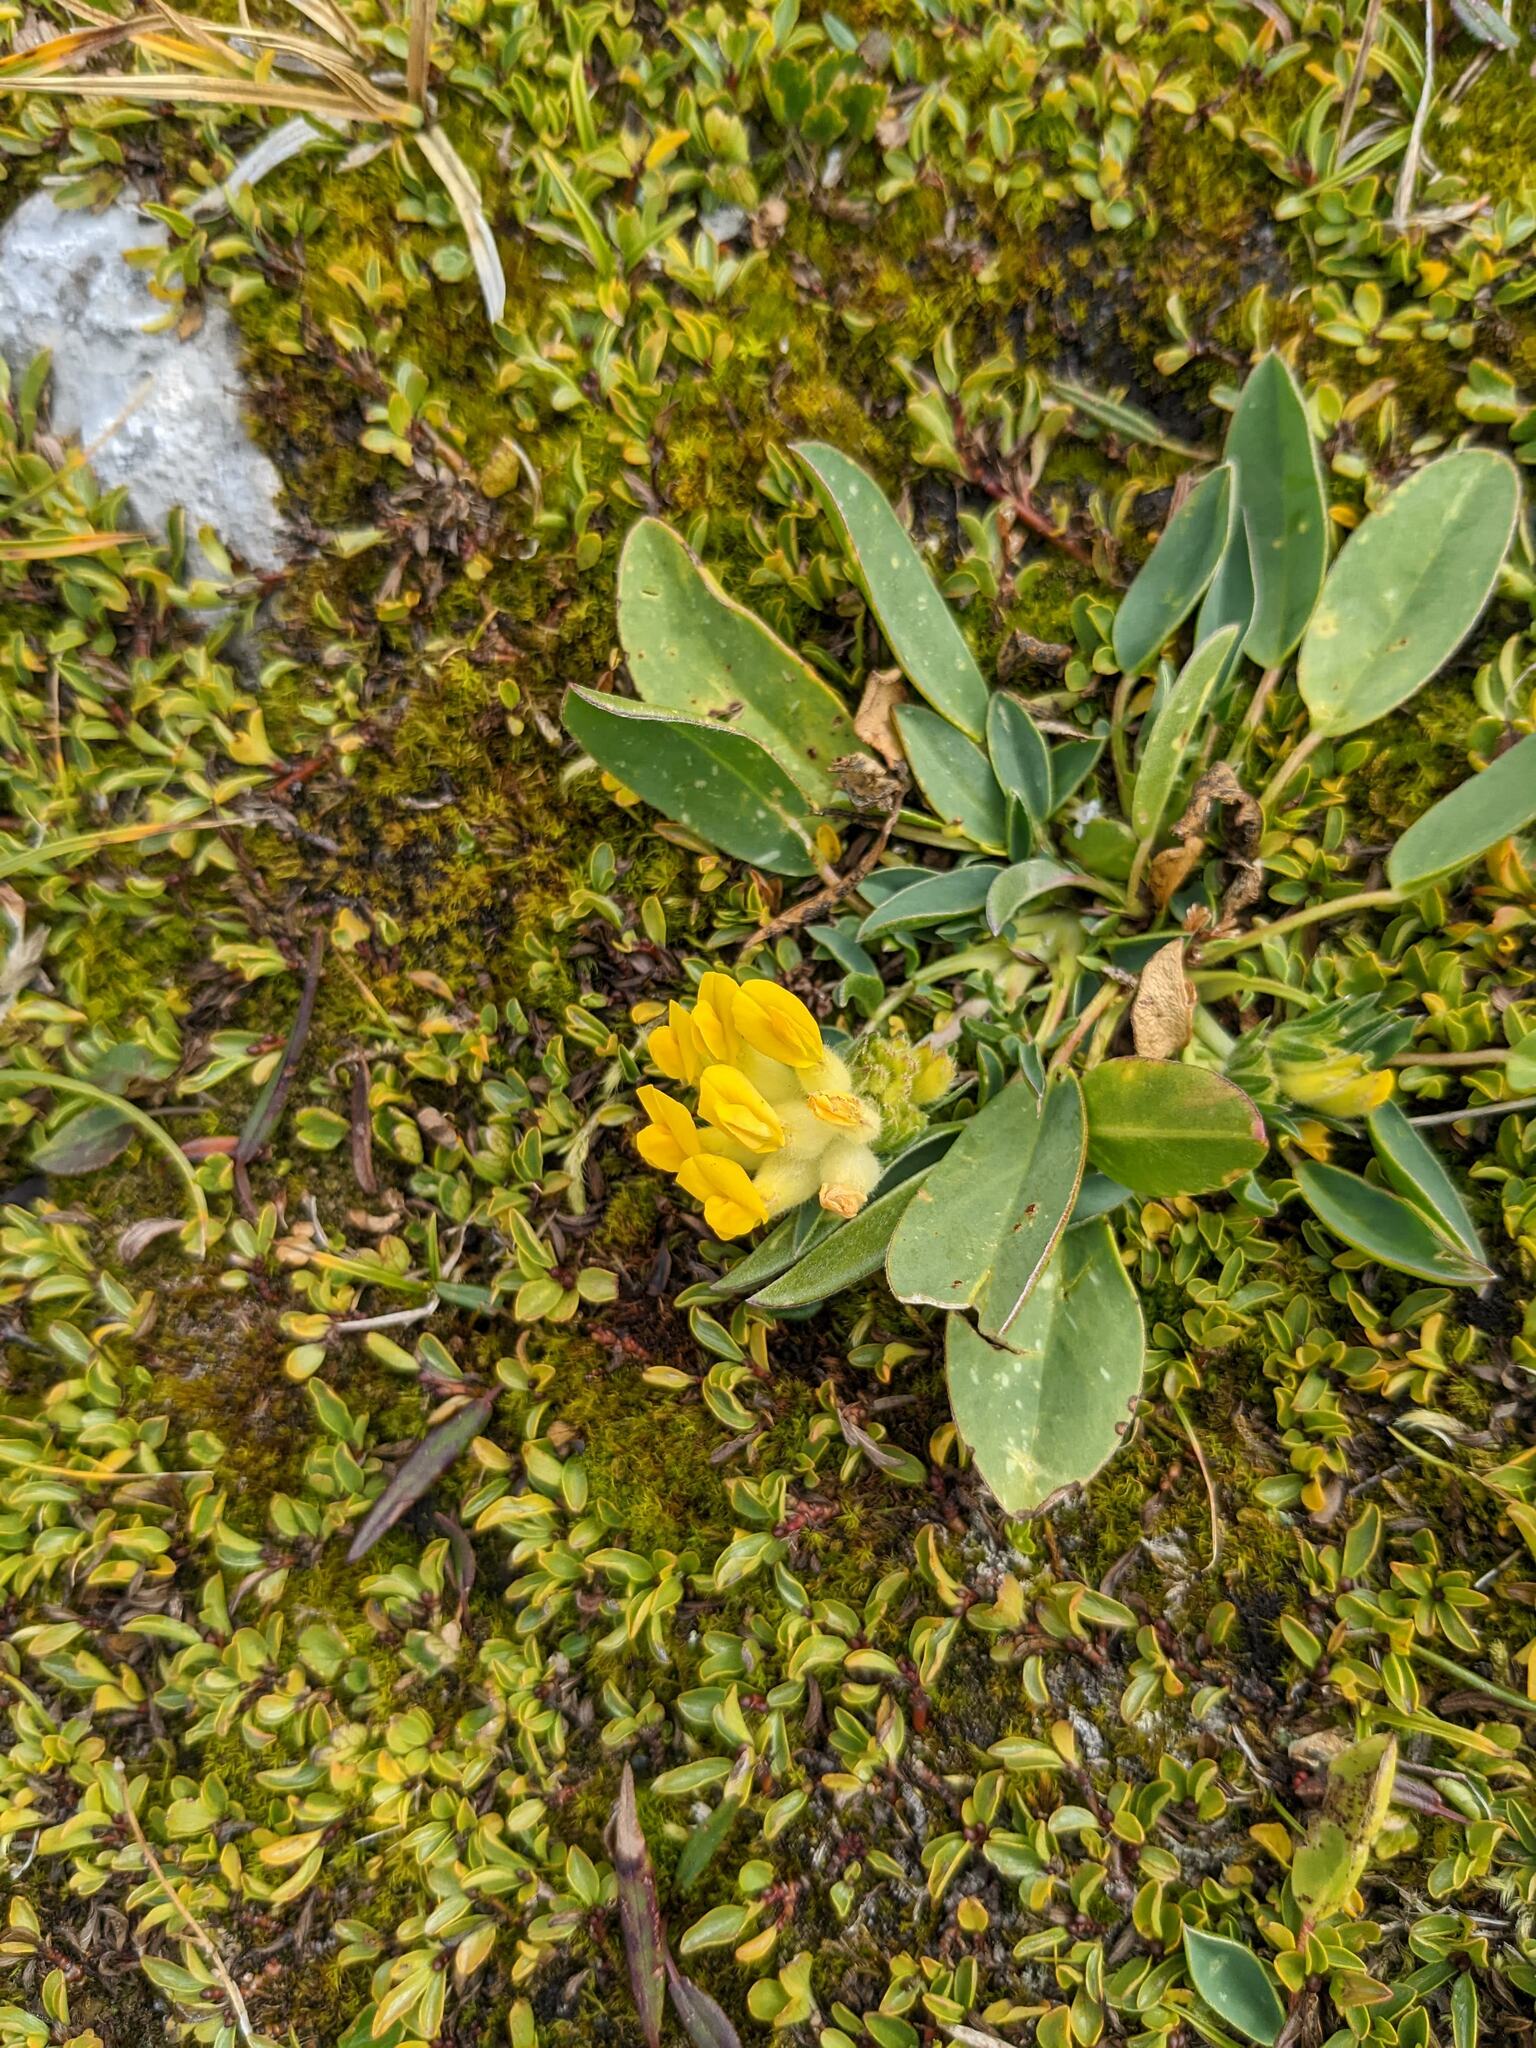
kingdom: Plantae
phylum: Tracheophyta
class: Magnoliopsida
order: Fabales
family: Fabaceae
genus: Anthyllis
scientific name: Anthyllis vulneraria
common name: Kidney vetch
